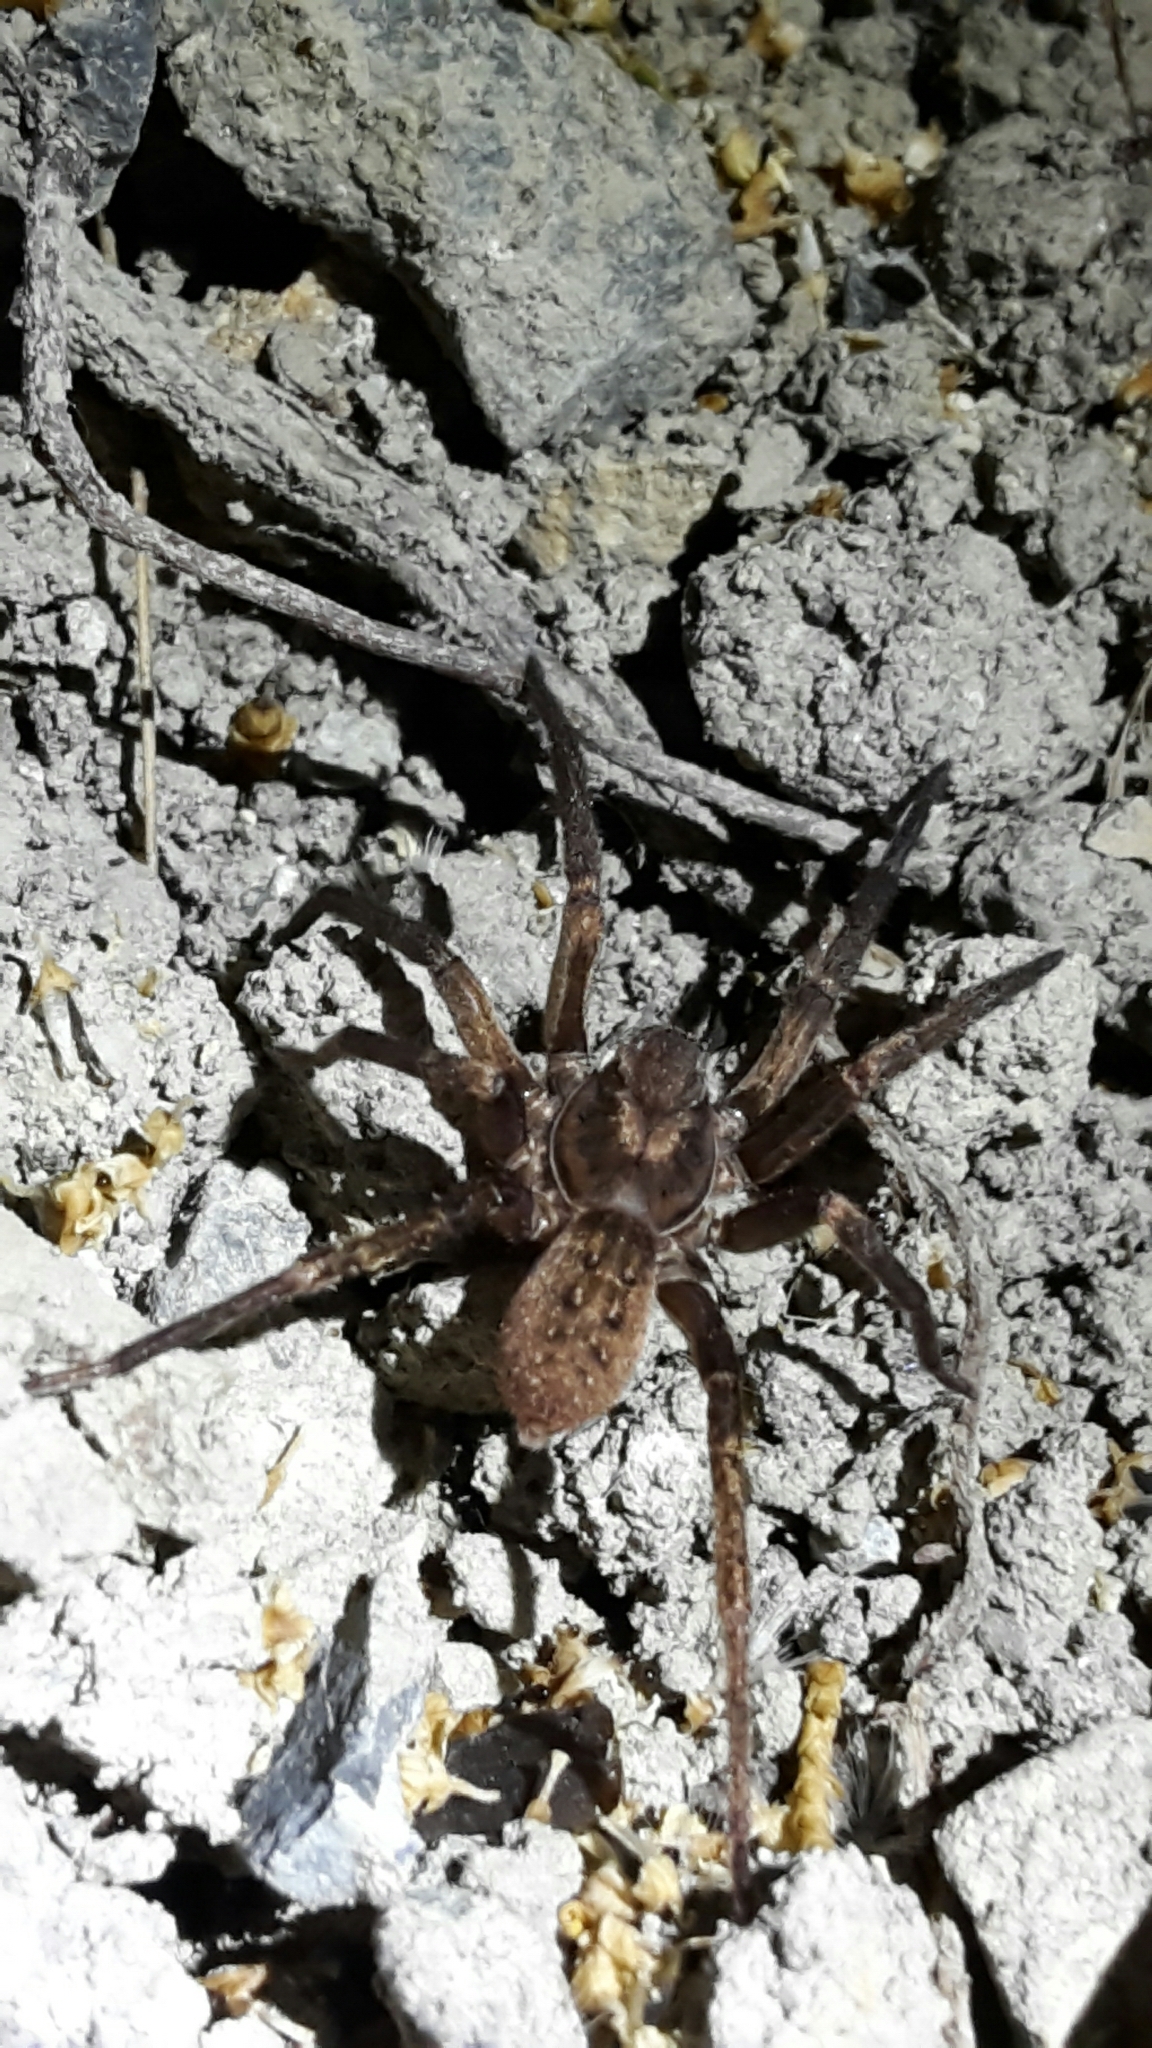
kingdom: Animalia
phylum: Arthropoda
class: Arachnida
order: Araneae
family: Zoropsidae
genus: Uliodon
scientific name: Uliodon albopunctatus
